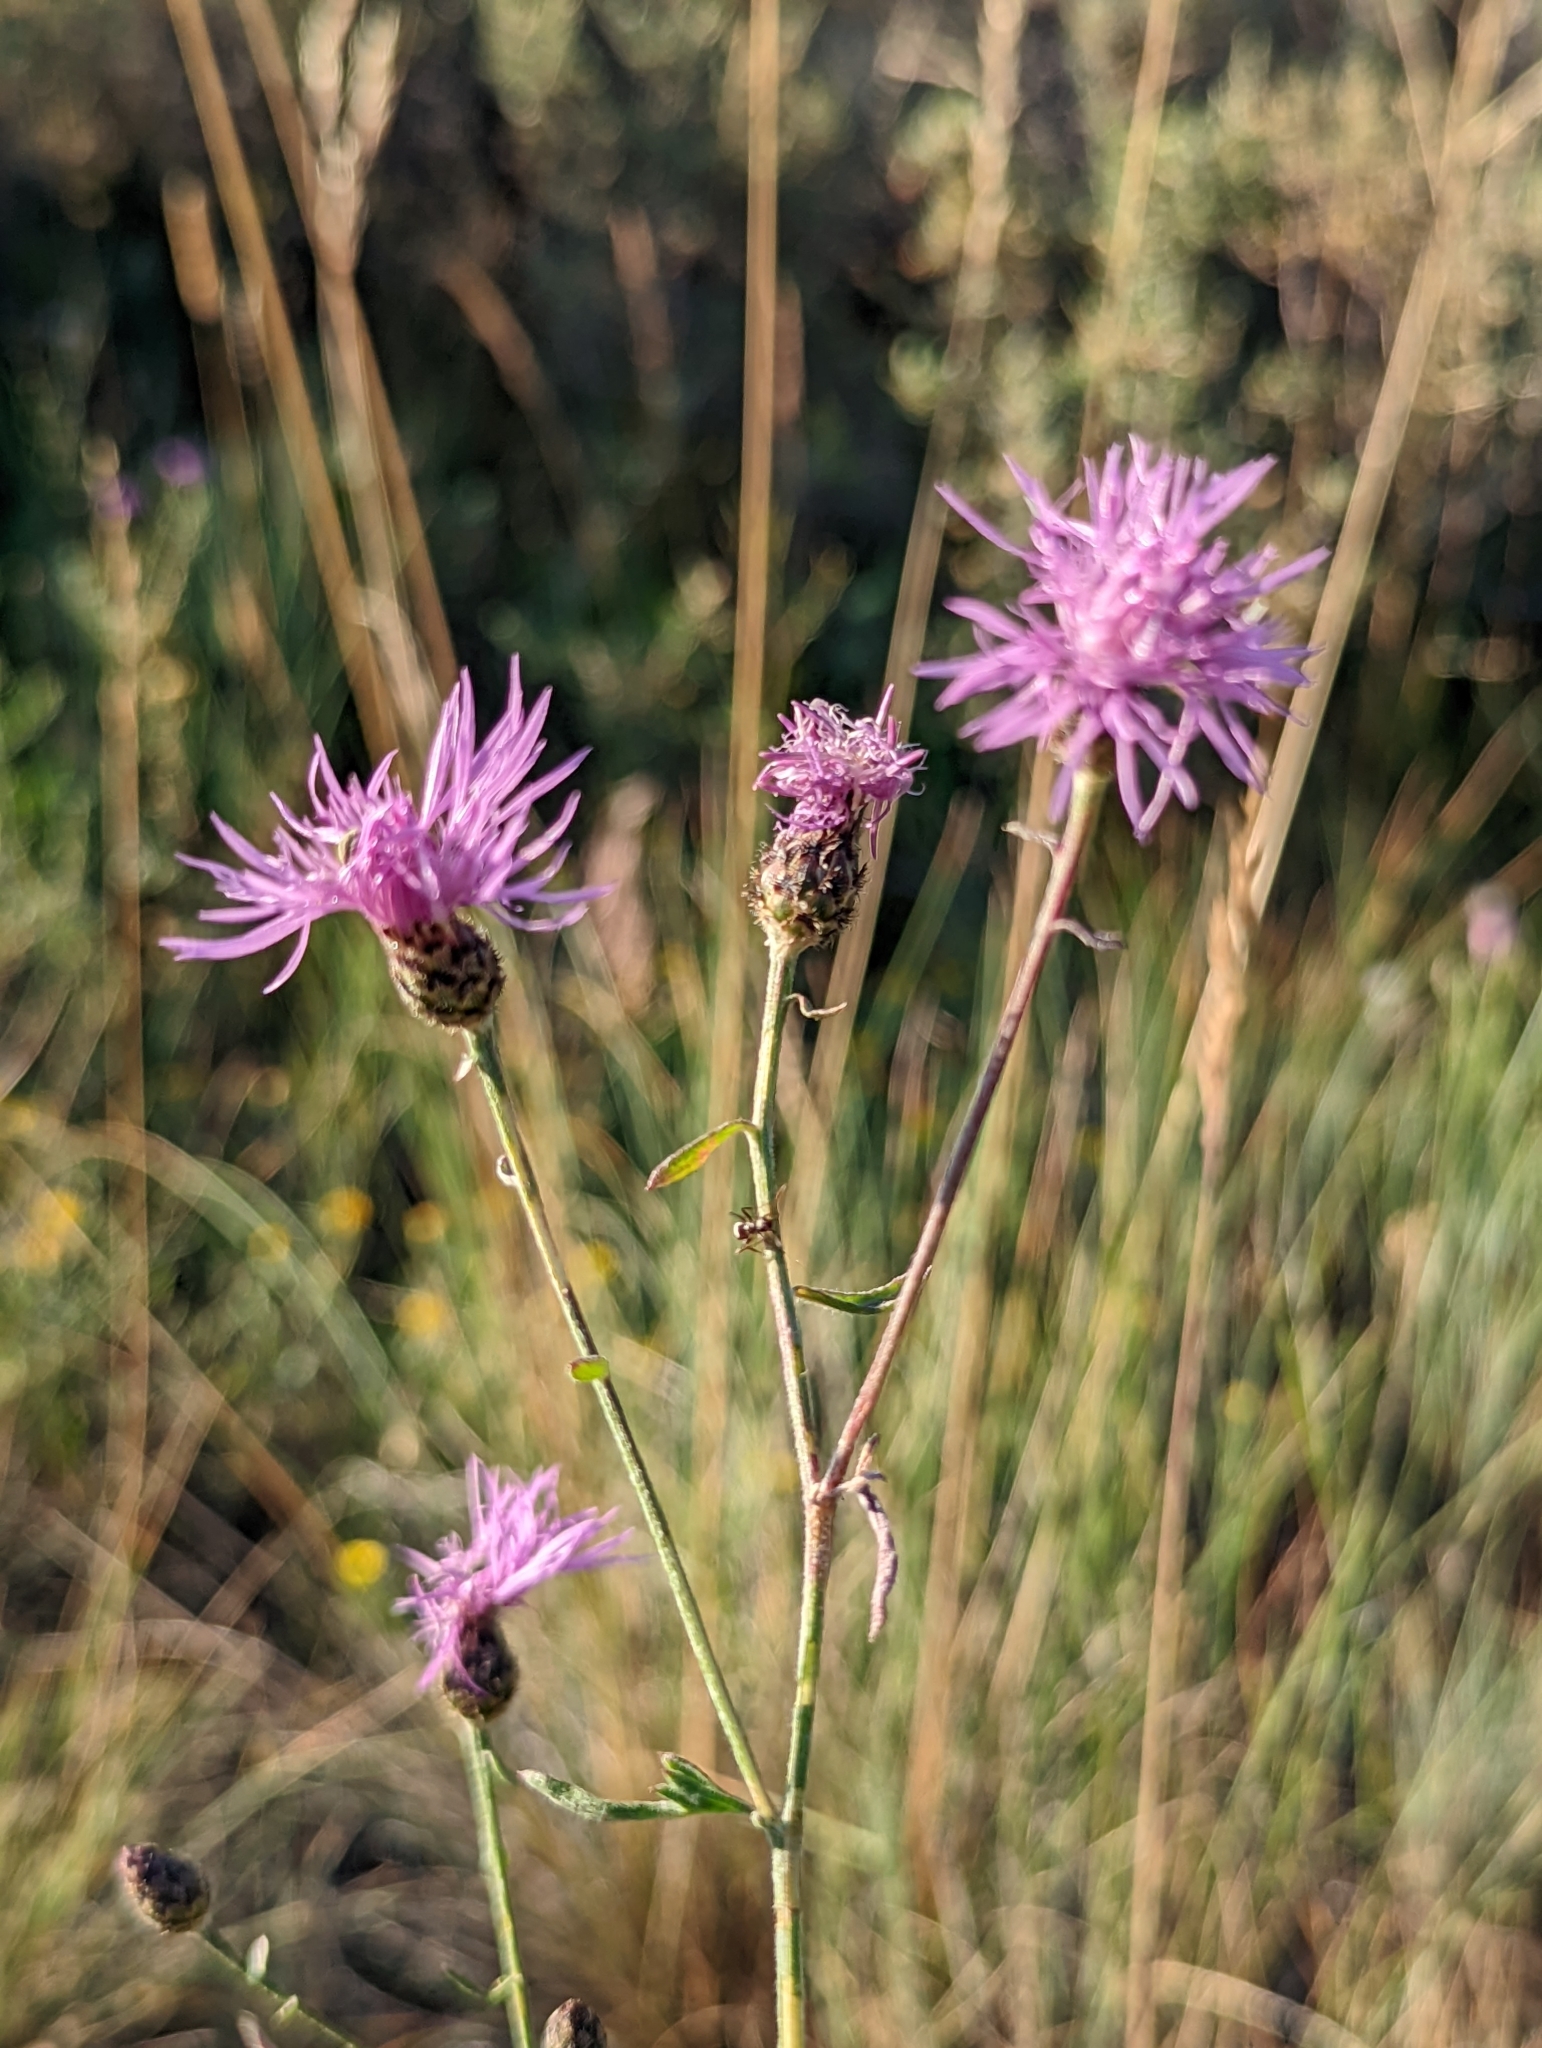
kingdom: Plantae
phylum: Tracheophyta
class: Magnoliopsida
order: Asterales
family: Asteraceae
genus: Centaurea
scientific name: Centaurea stoebe
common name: Spotted knapweed
